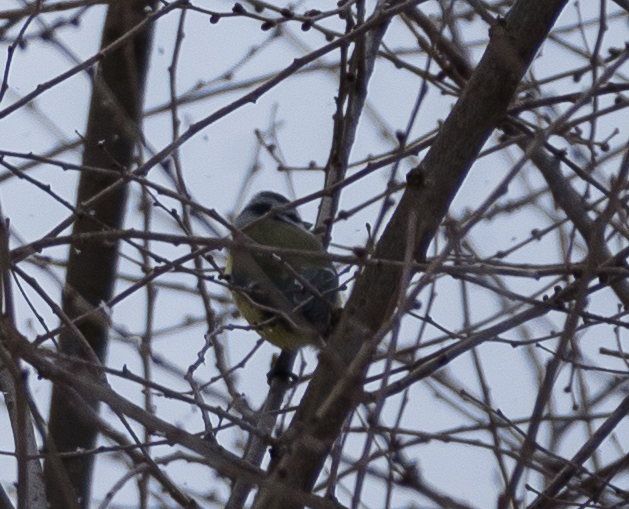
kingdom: Animalia
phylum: Chordata
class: Aves
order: Passeriformes
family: Paridae
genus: Cyanistes
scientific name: Cyanistes caeruleus
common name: Eurasian blue tit
